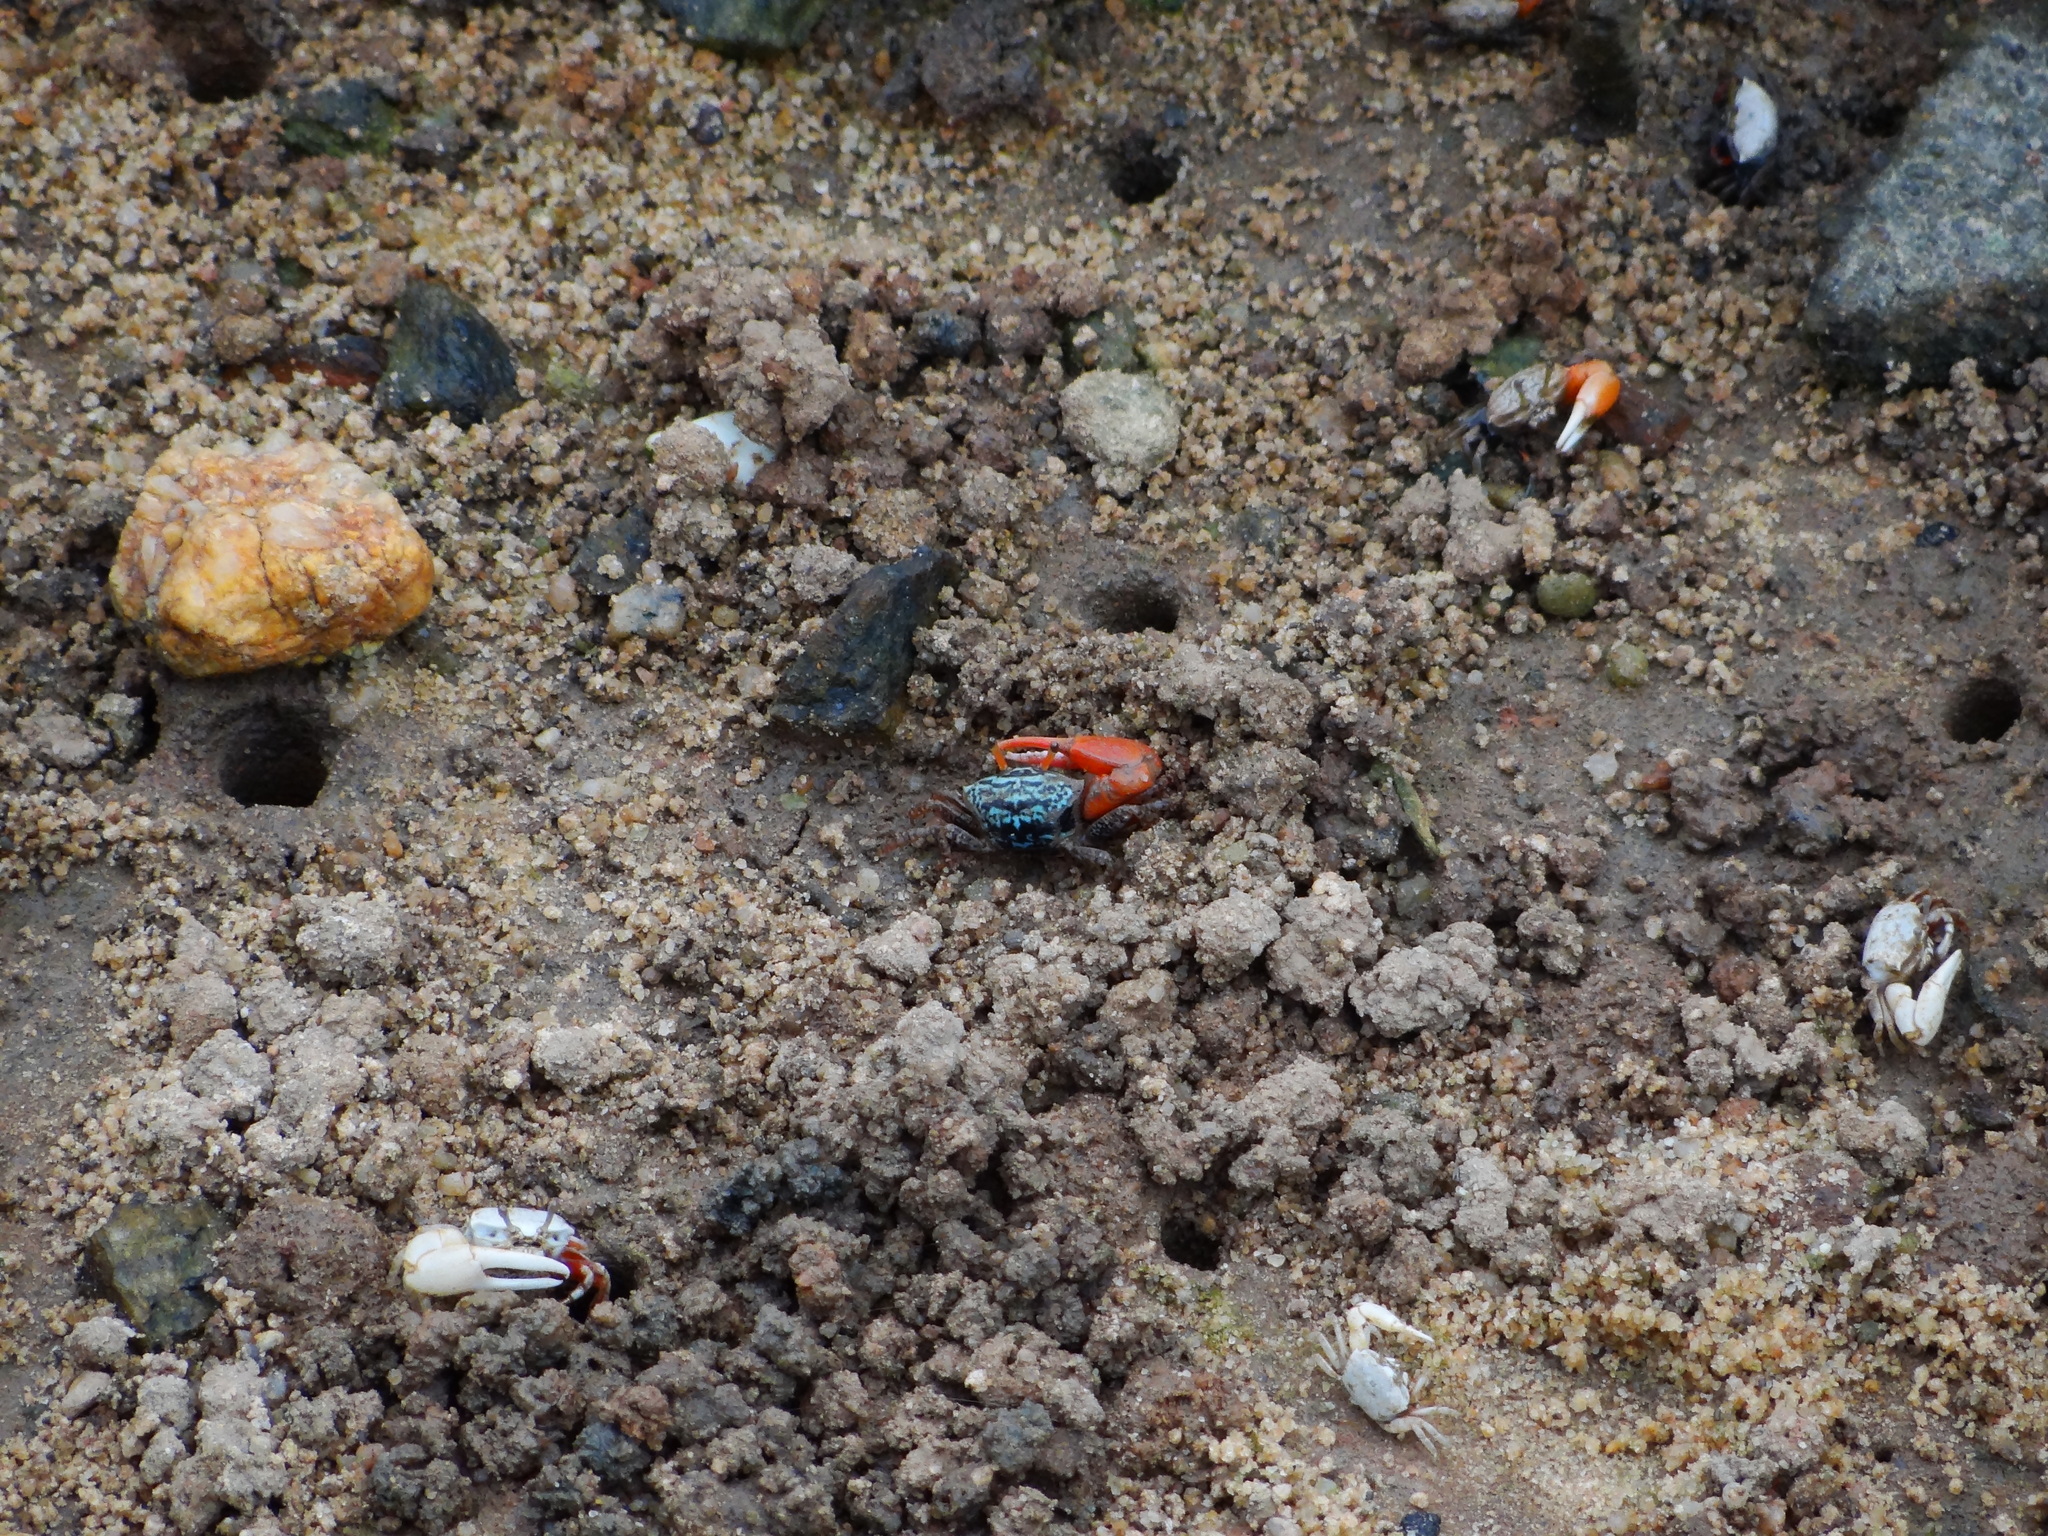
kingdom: Animalia
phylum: Arthropoda
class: Malacostraca
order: Decapoda
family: Ocypodidae
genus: Paraleptuca
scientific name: Paraleptuca splendida
